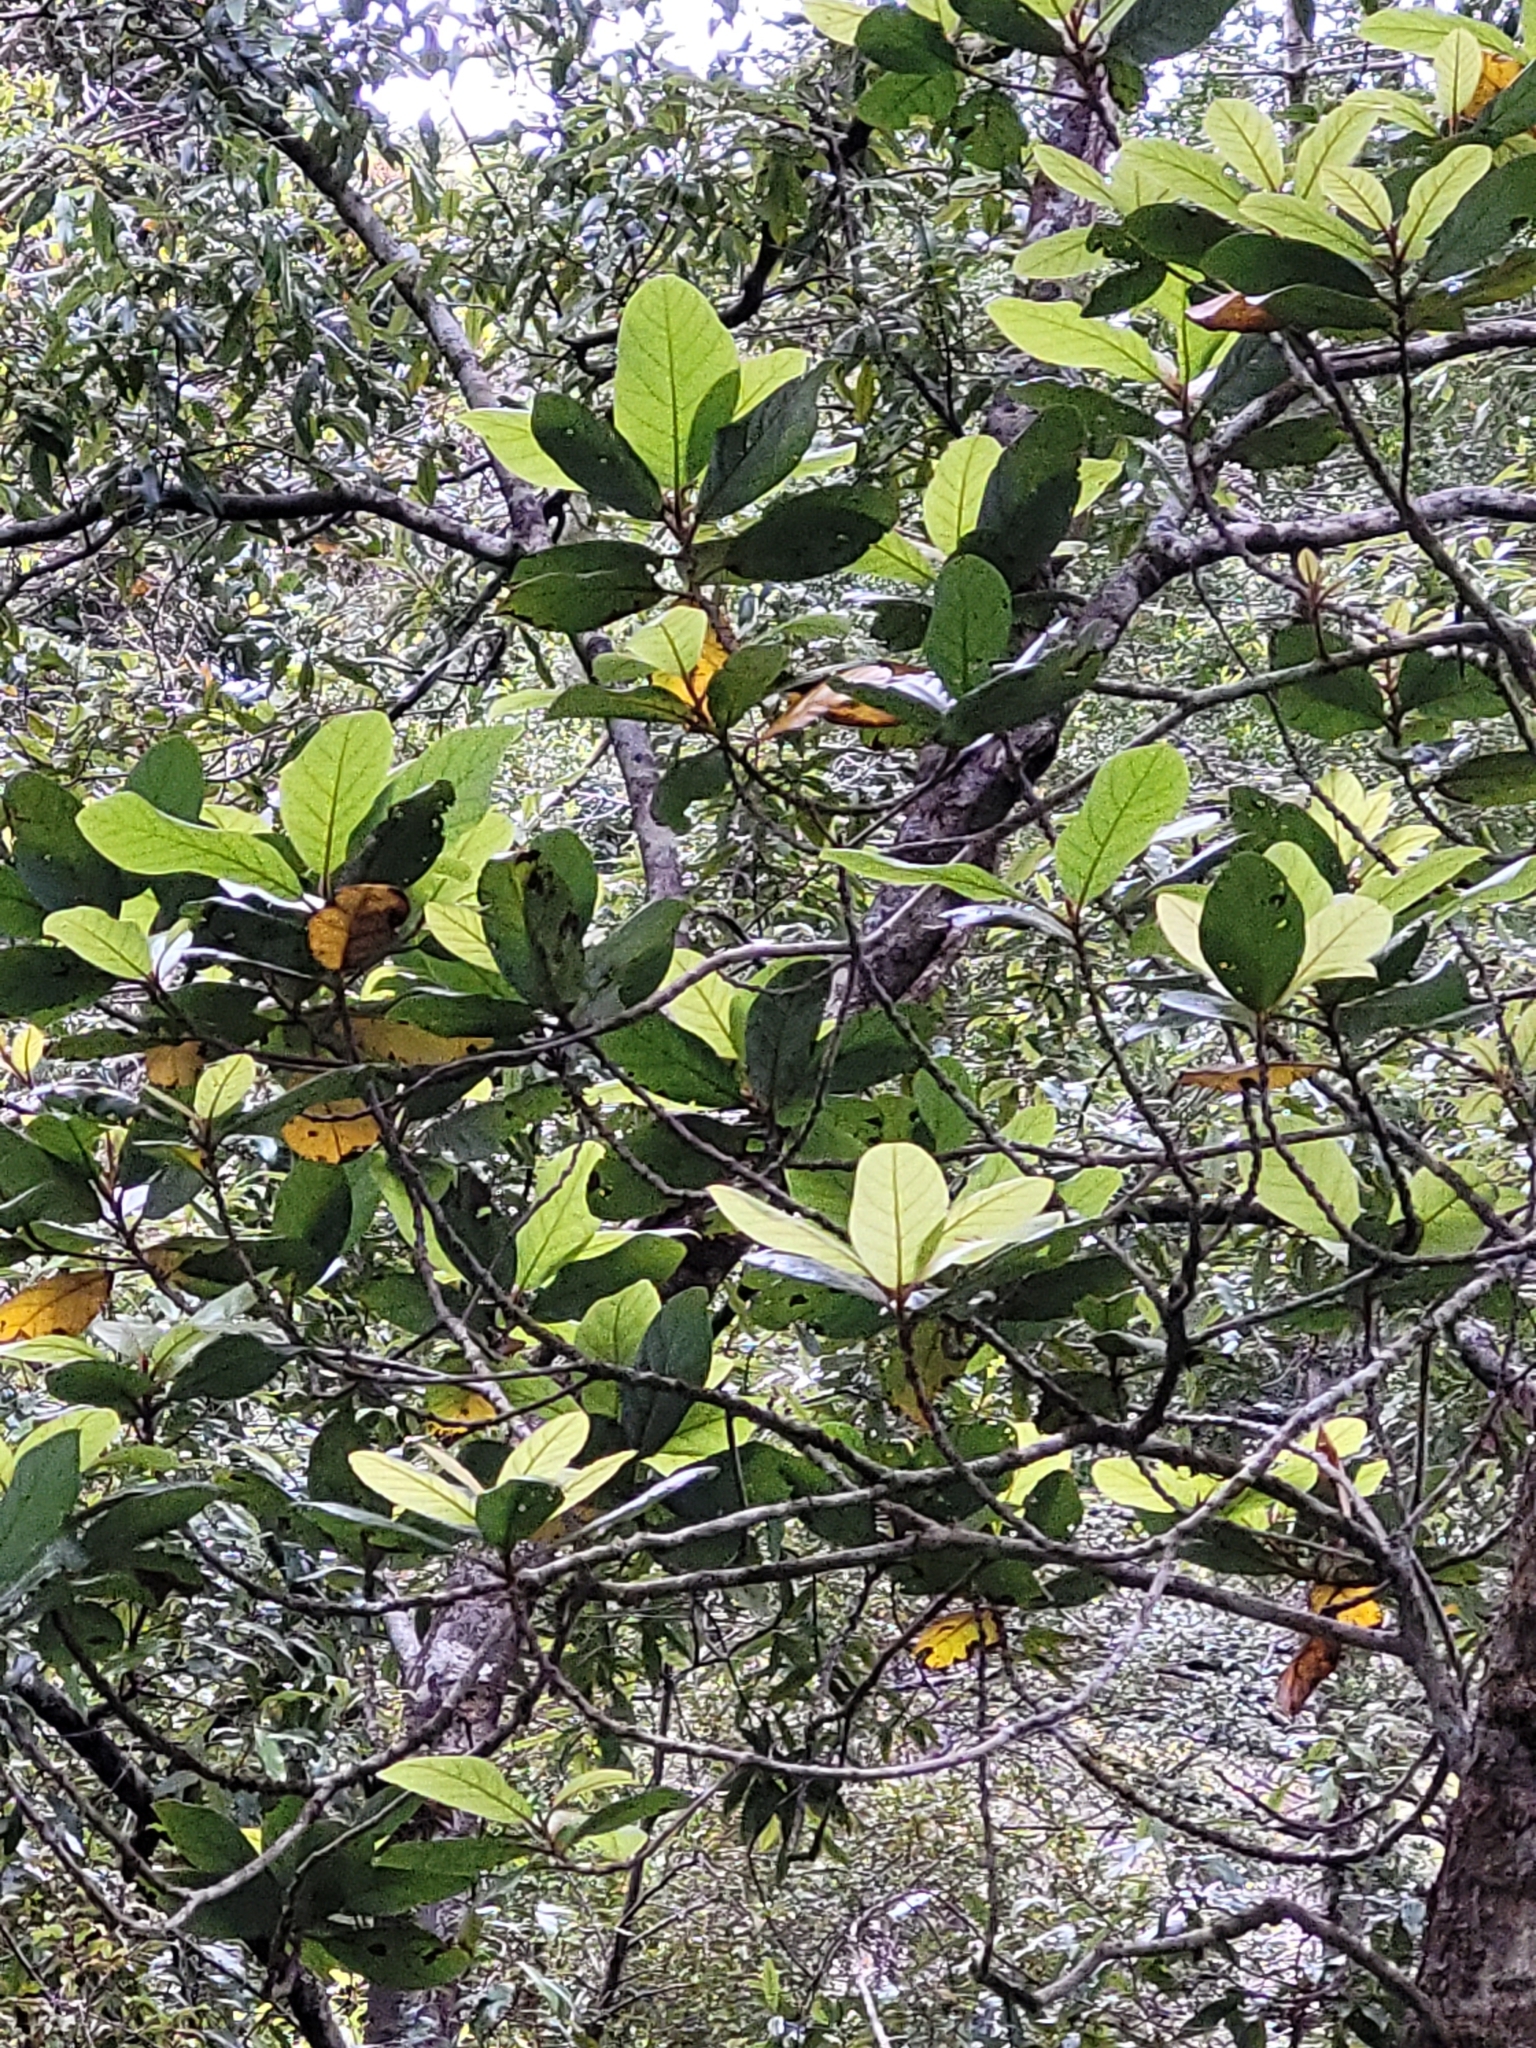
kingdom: Plantae
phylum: Tracheophyta
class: Magnoliopsida
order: Cucurbitales
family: Corynocarpaceae
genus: Corynocarpus
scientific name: Corynocarpus laevigatus
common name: New zealand laurel
